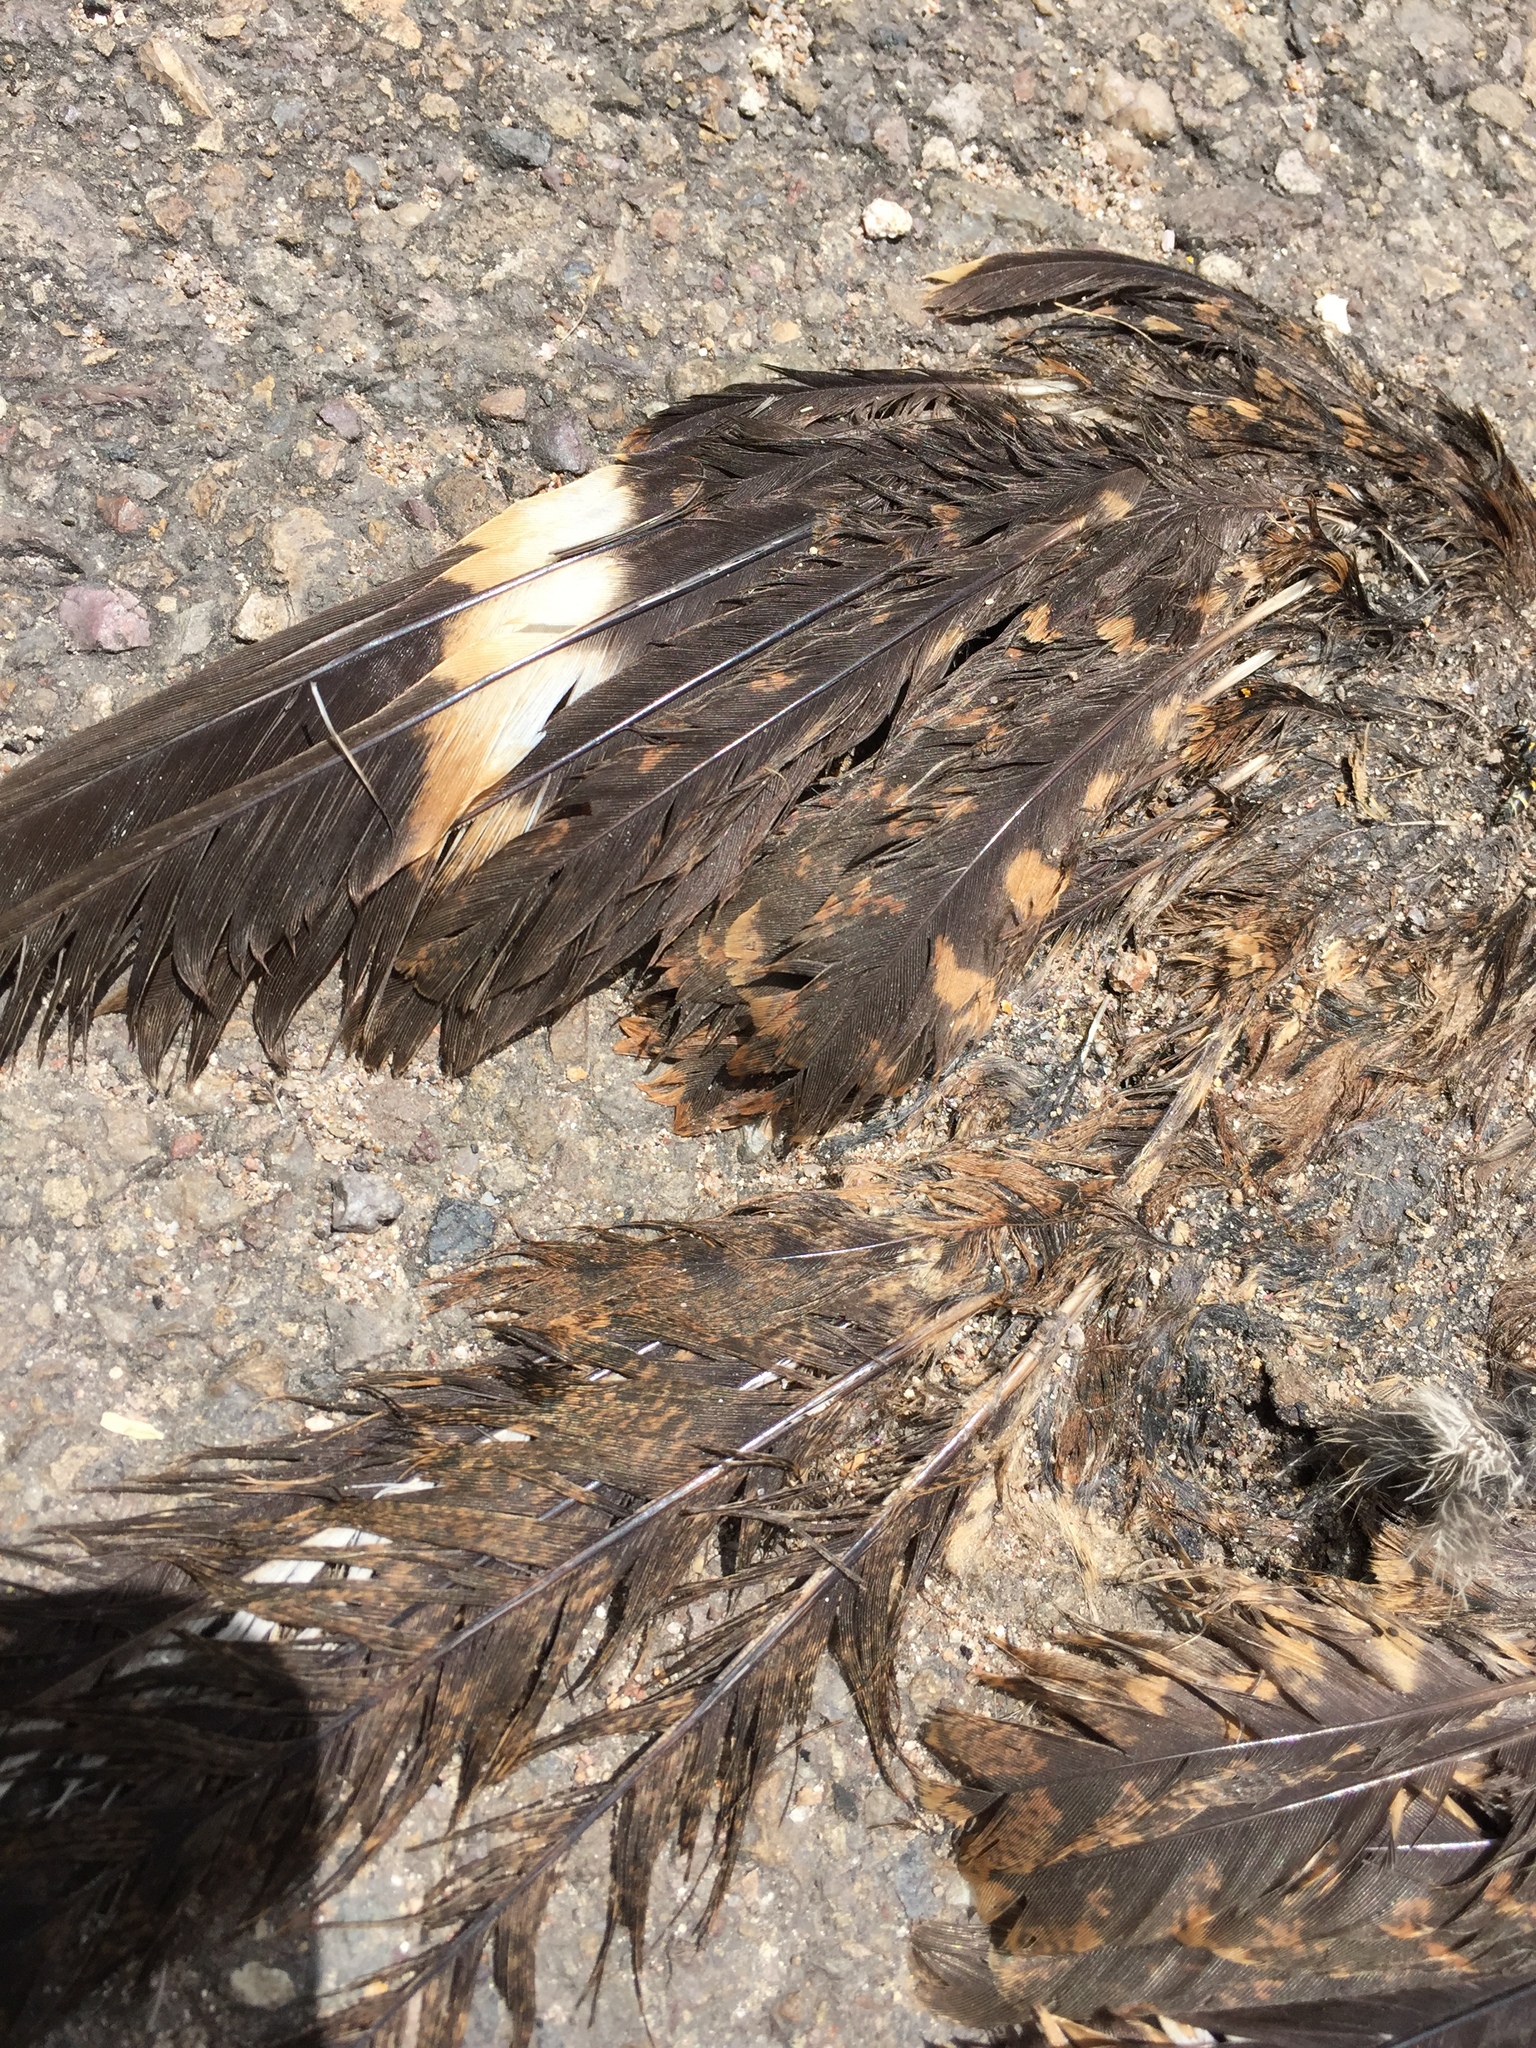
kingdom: Animalia
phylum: Chordata
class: Aves
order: Caprimulgiformes
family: Caprimulgidae
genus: Chordeiles
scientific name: Chordeiles acutipennis
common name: Lesser nighthawk
